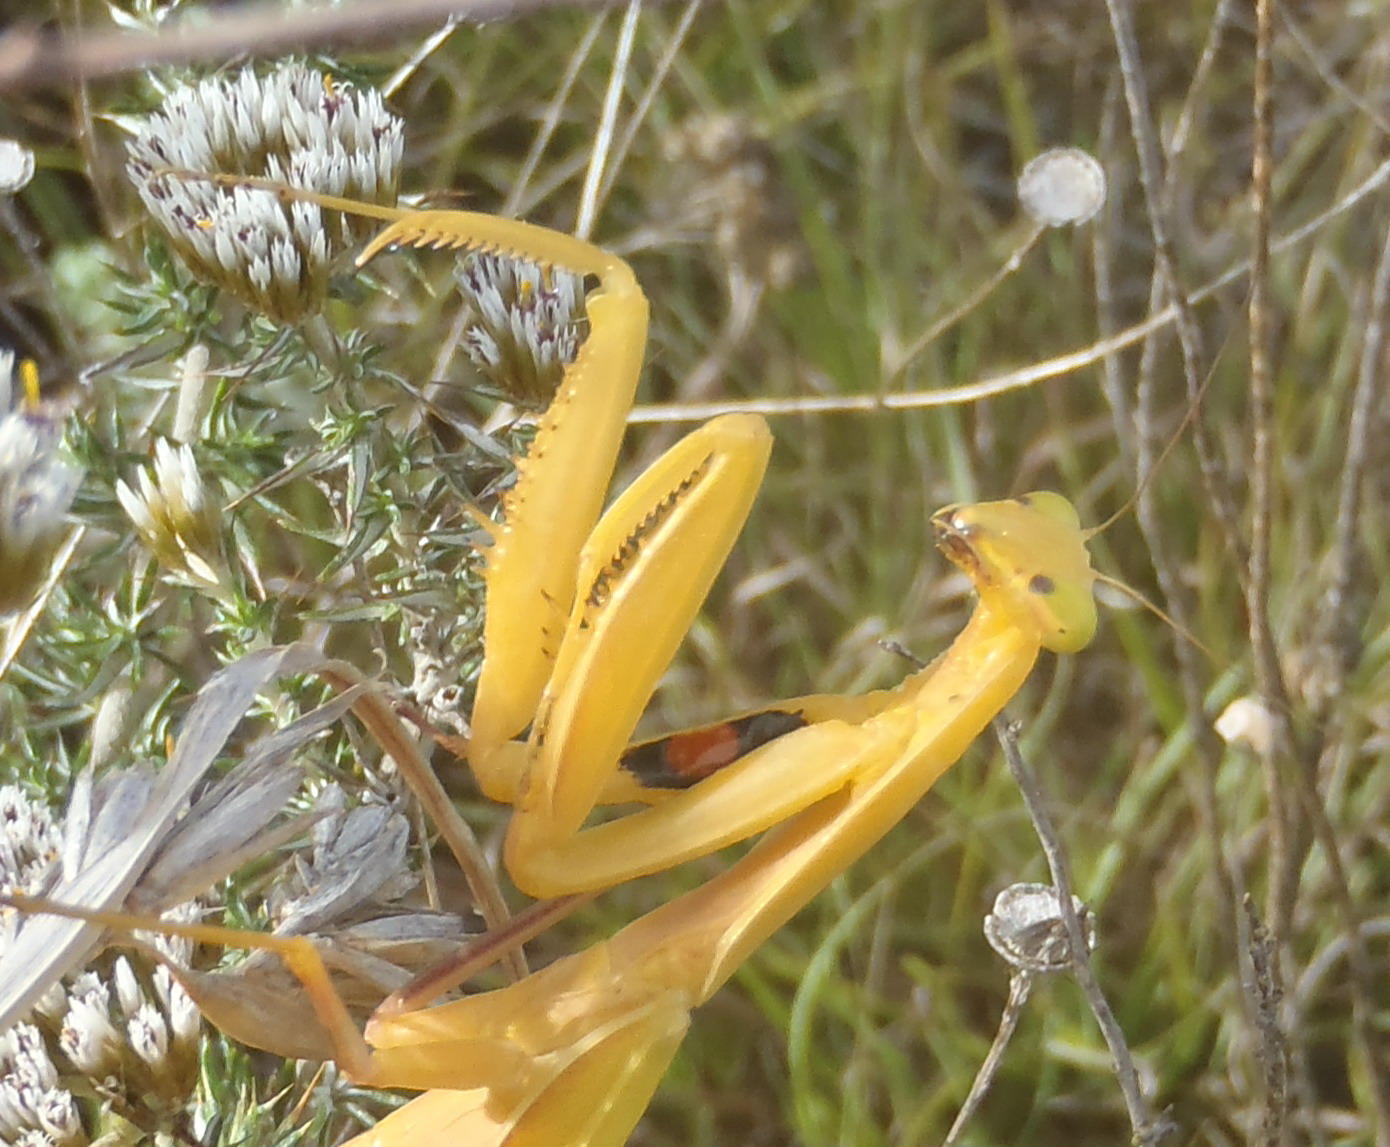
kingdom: Animalia
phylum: Arthropoda
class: Insecta
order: Mantodea
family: Mantidae
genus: Paramantis
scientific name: Paramantis sacra
